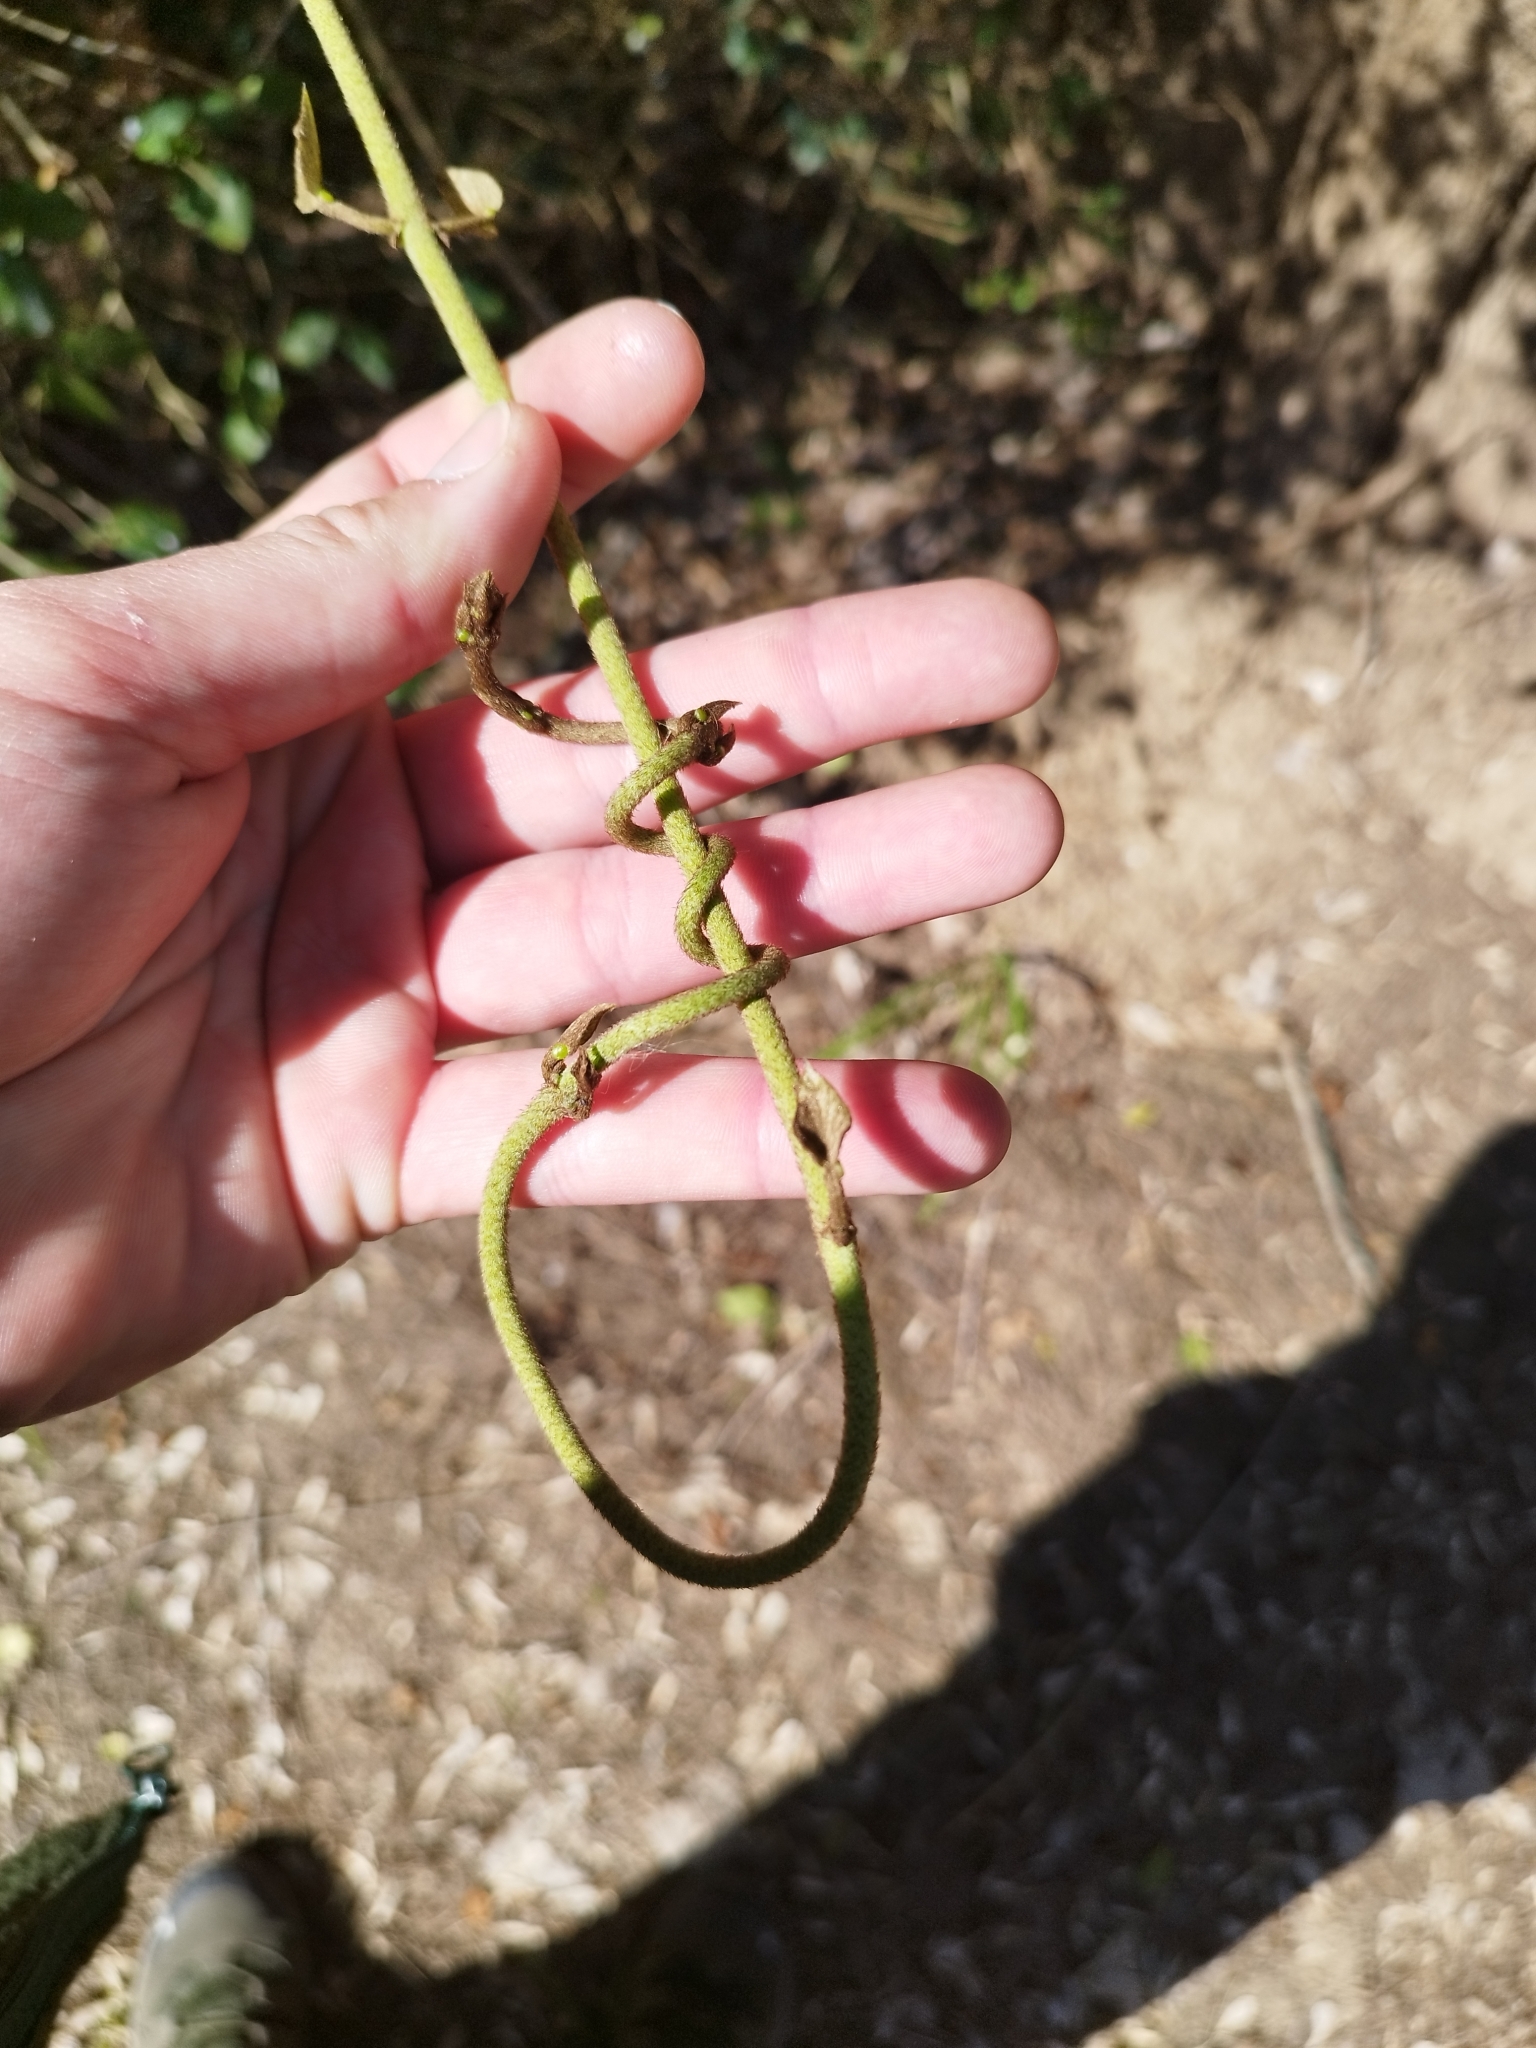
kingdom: Plantae
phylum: Tracheophyta
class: Magnoliopsida
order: Malpighiales
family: Malpighiaceae
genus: Stigmaphyllon
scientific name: Stigmaphyllon bonariense
